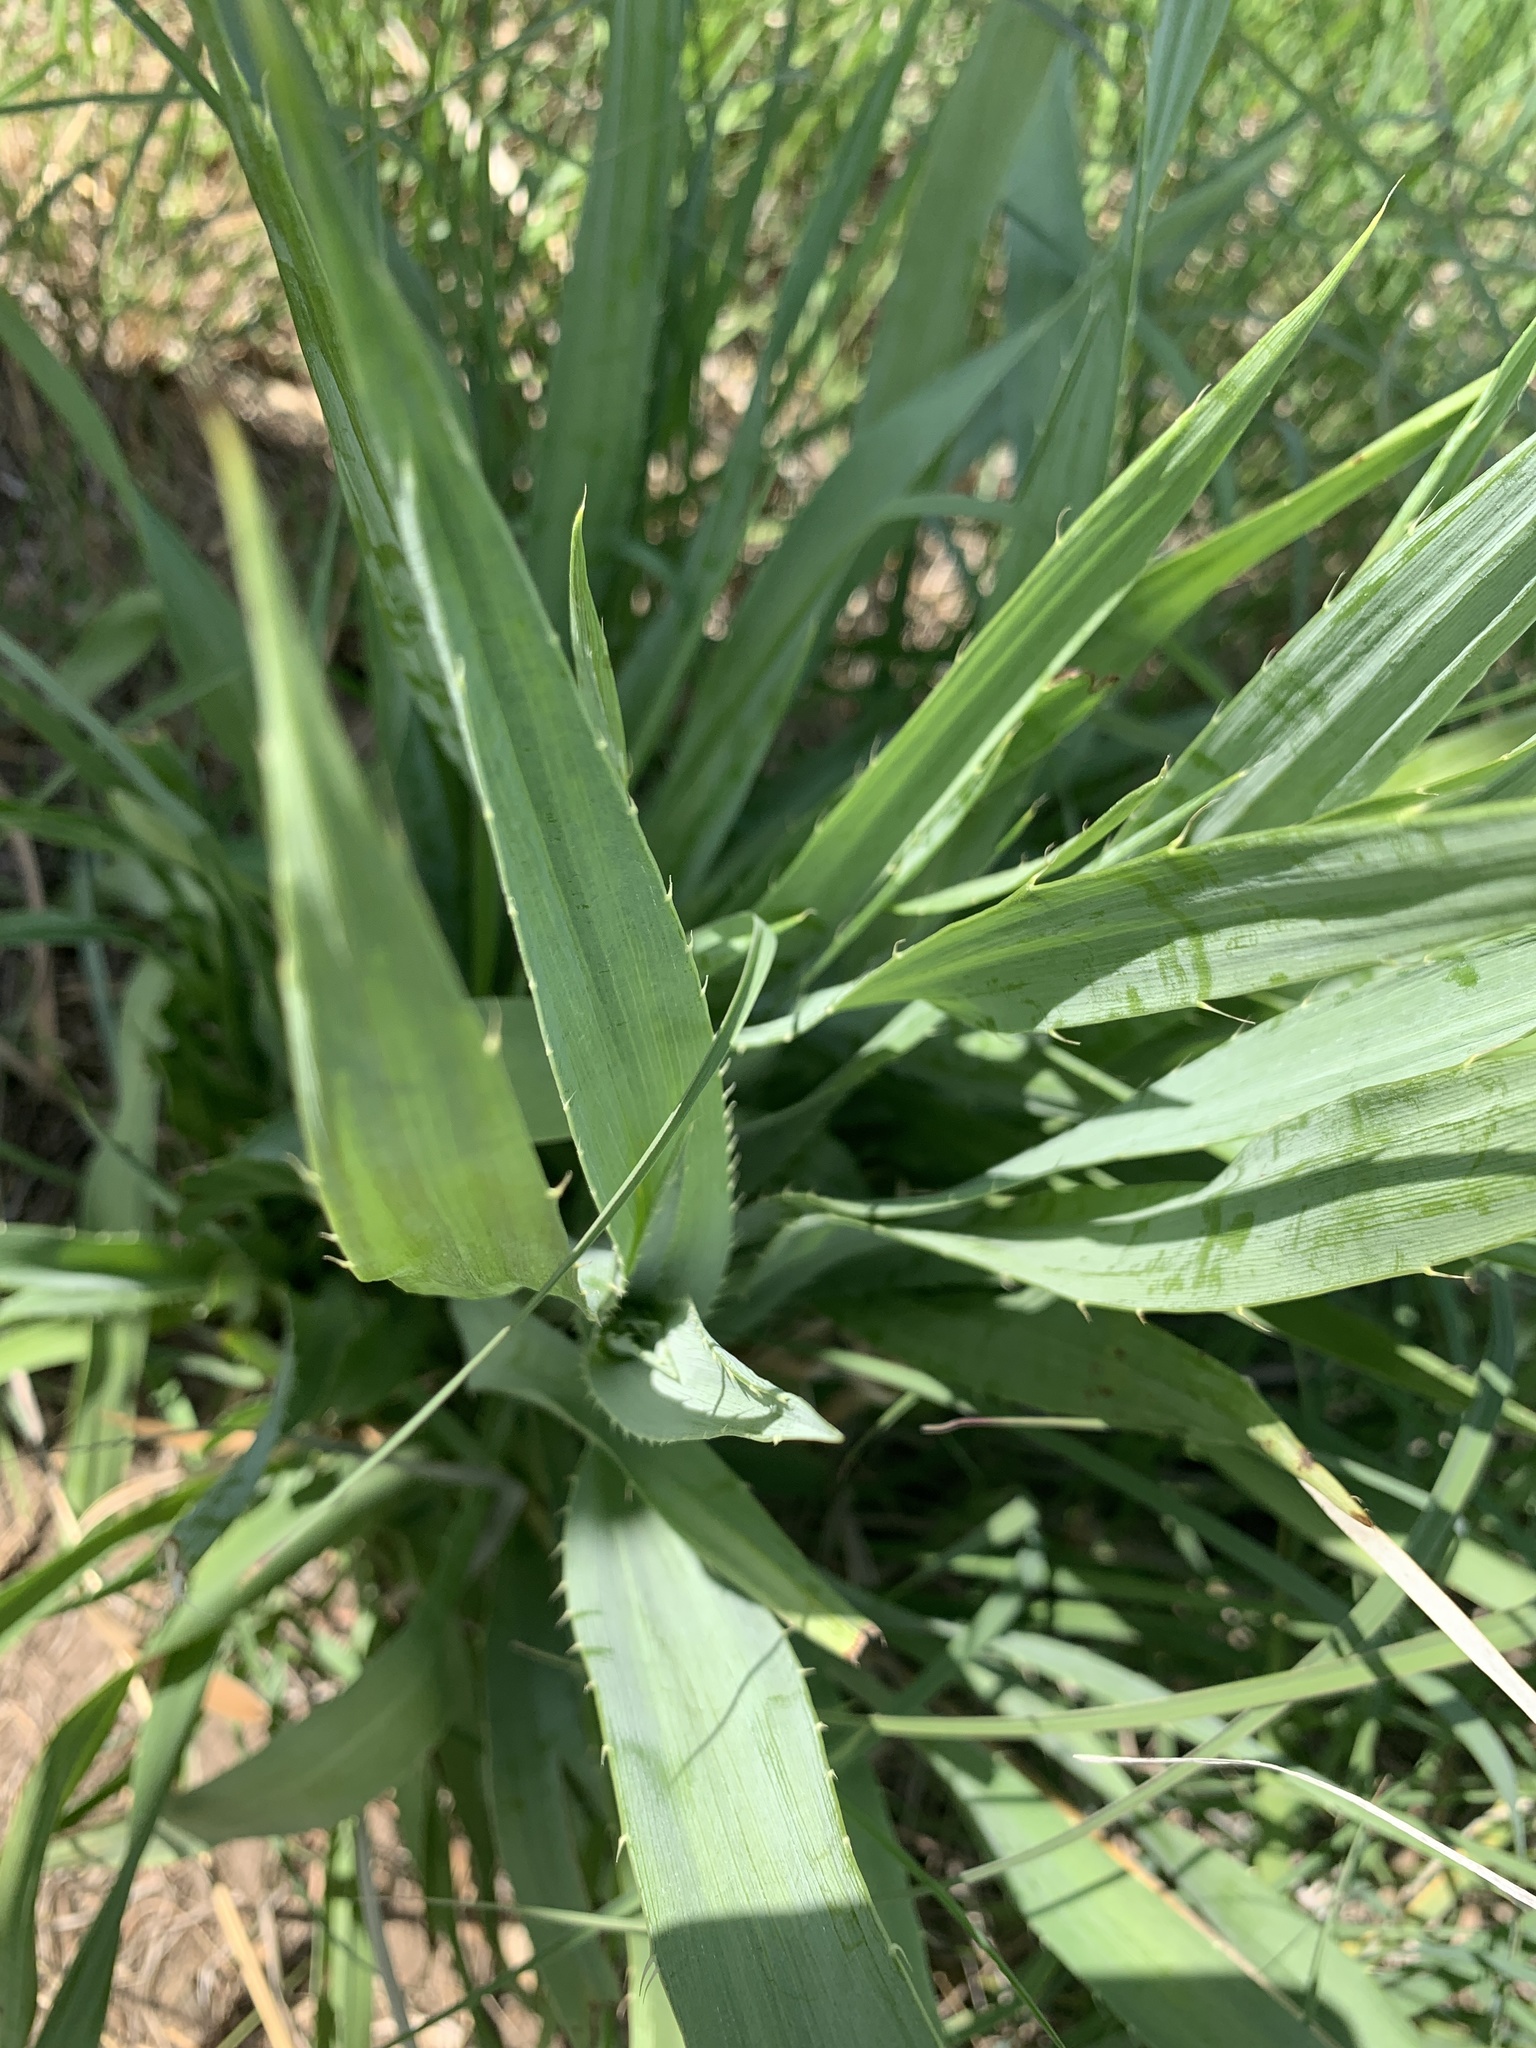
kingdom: Plantae
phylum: Tracheophyta
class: Magnoliopsida
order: Apiales
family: Apiaceae
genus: Eryngium
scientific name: Eryngium yuccifolium
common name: Button eryngo
